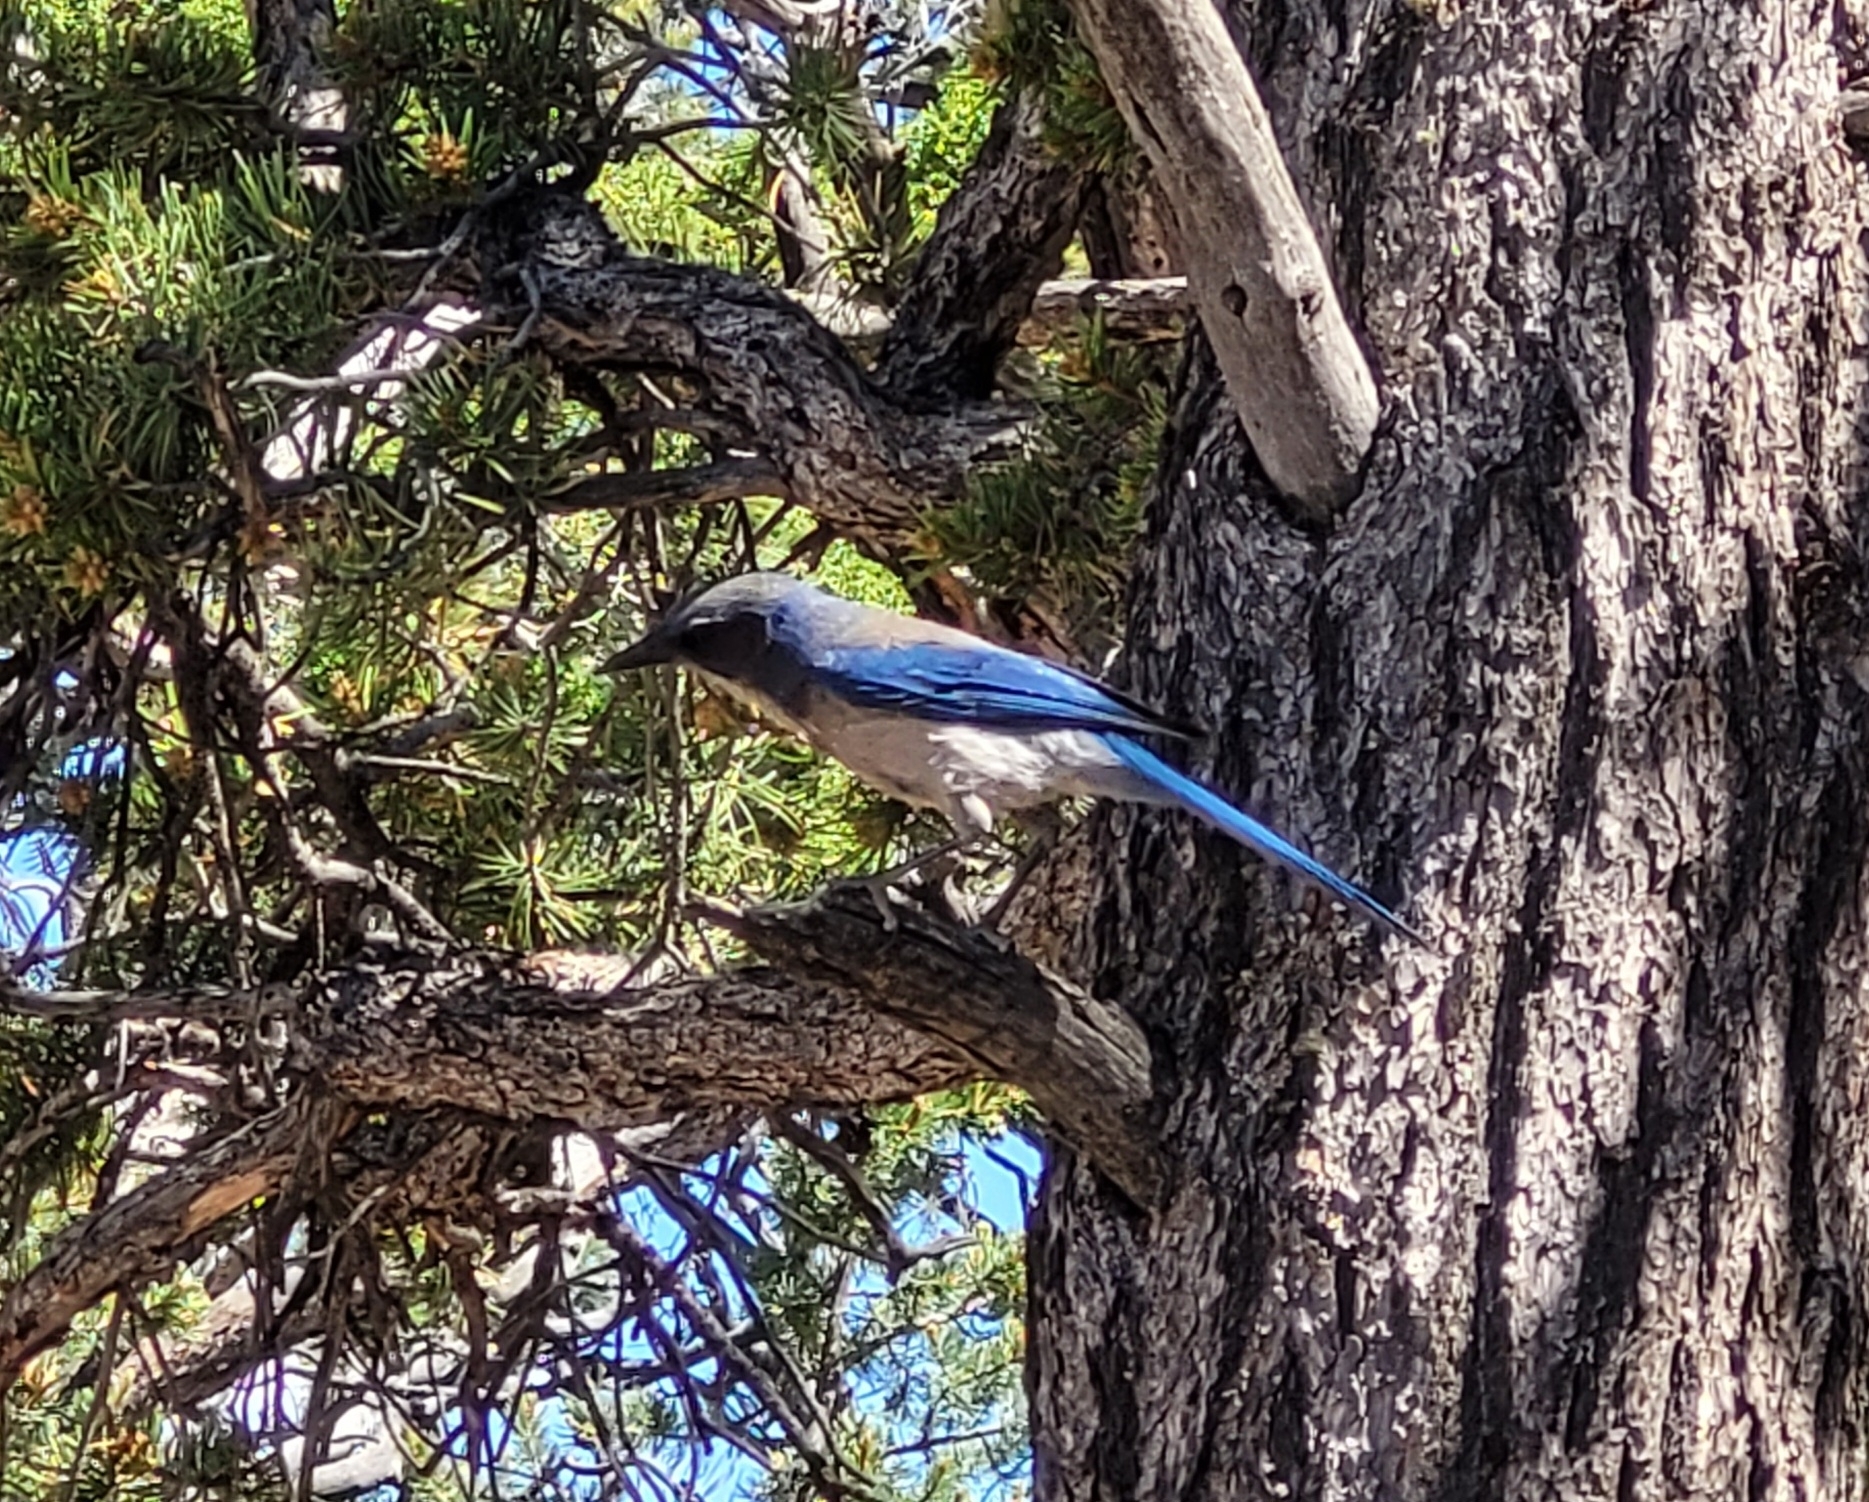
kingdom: Animalia
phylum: Chordata
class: Aves
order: Passeriformes
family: Corvidae
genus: Aphelocoma
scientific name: Aphelocoma woodhouseii
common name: Woodhouse's scrub-jay
